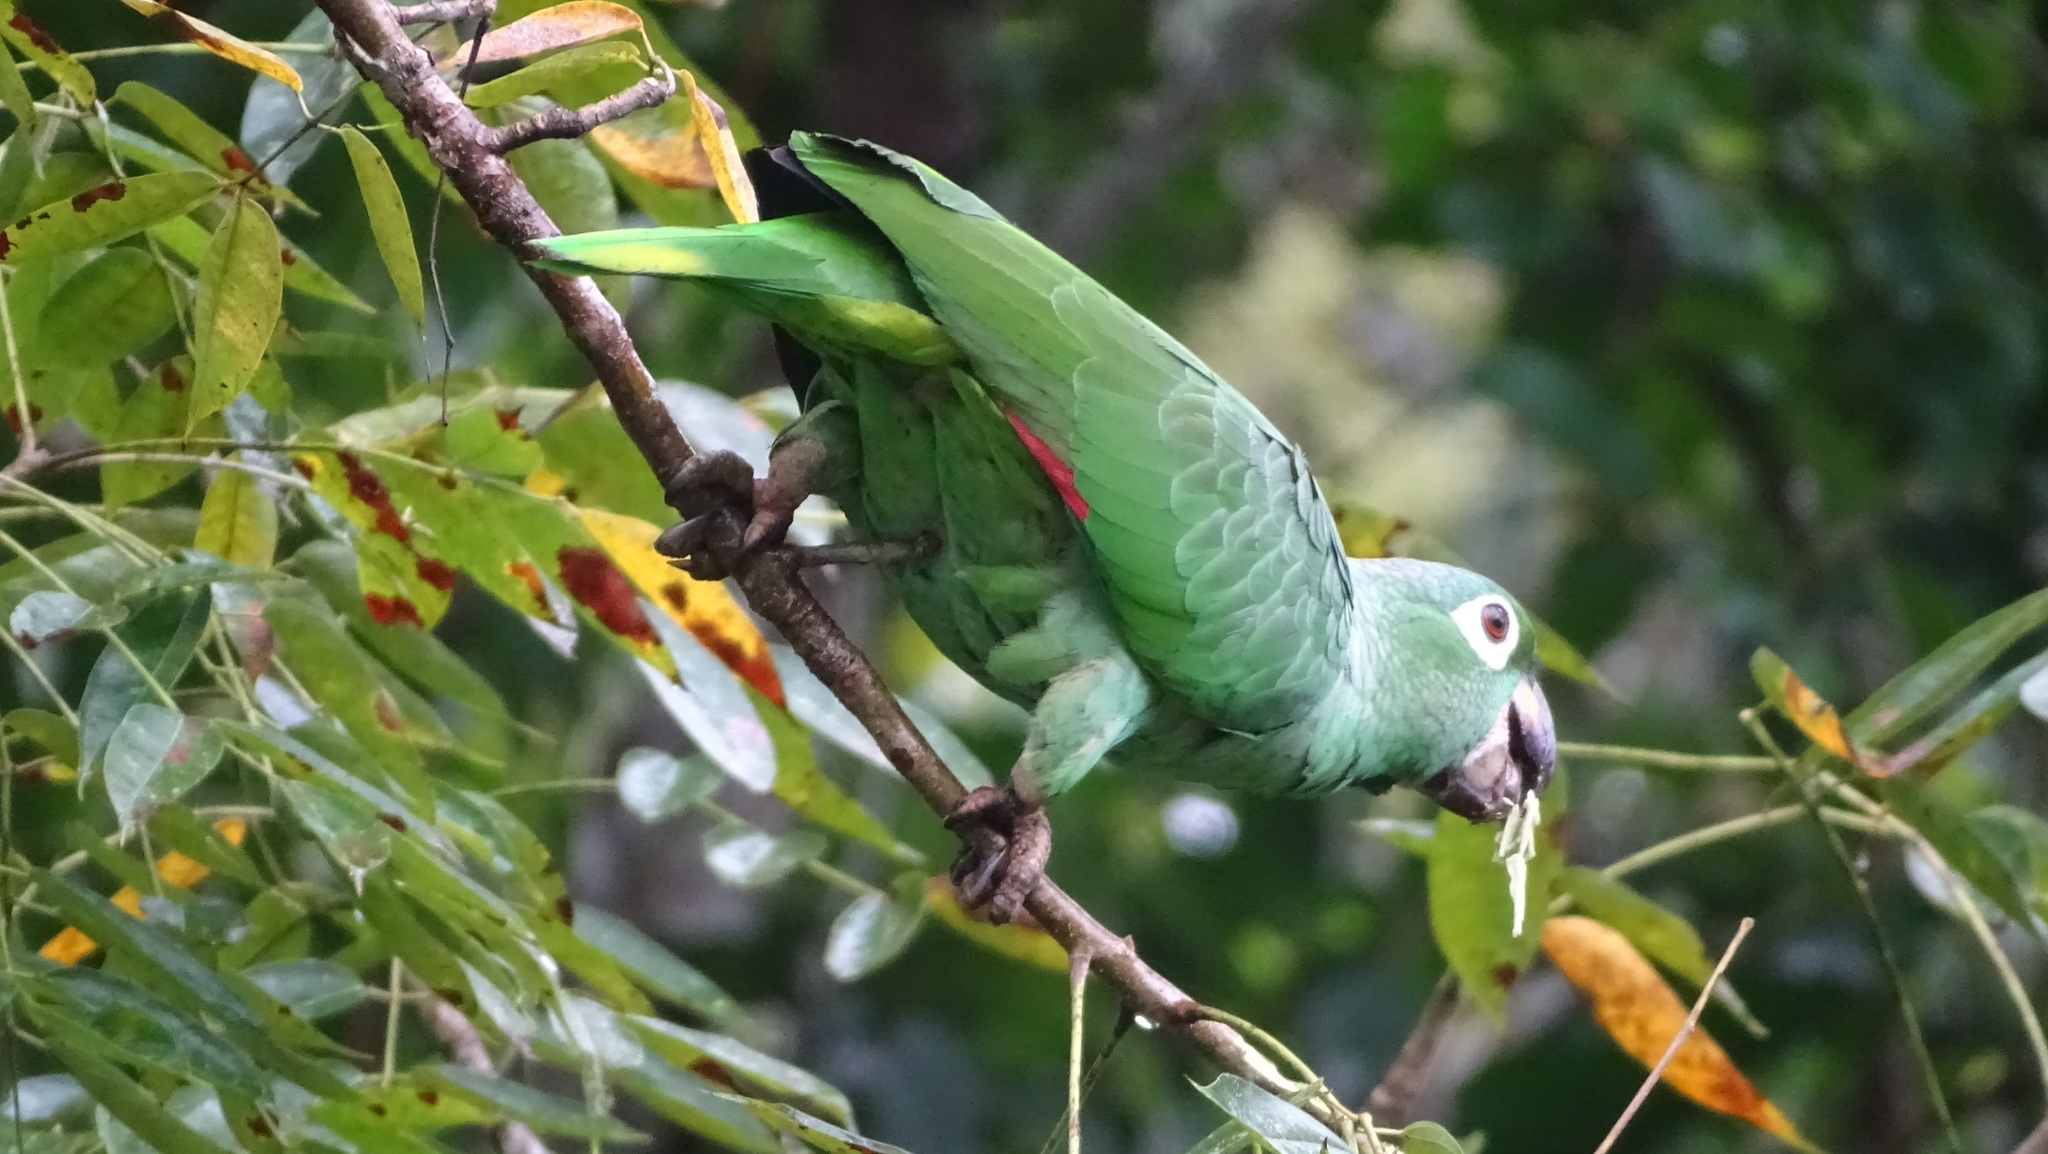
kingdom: Animalia
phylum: Chordata
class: Aves
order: Psittaciformes
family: Psittacidae
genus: Amazona
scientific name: Amazona farinosa
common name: Mealy parrot
